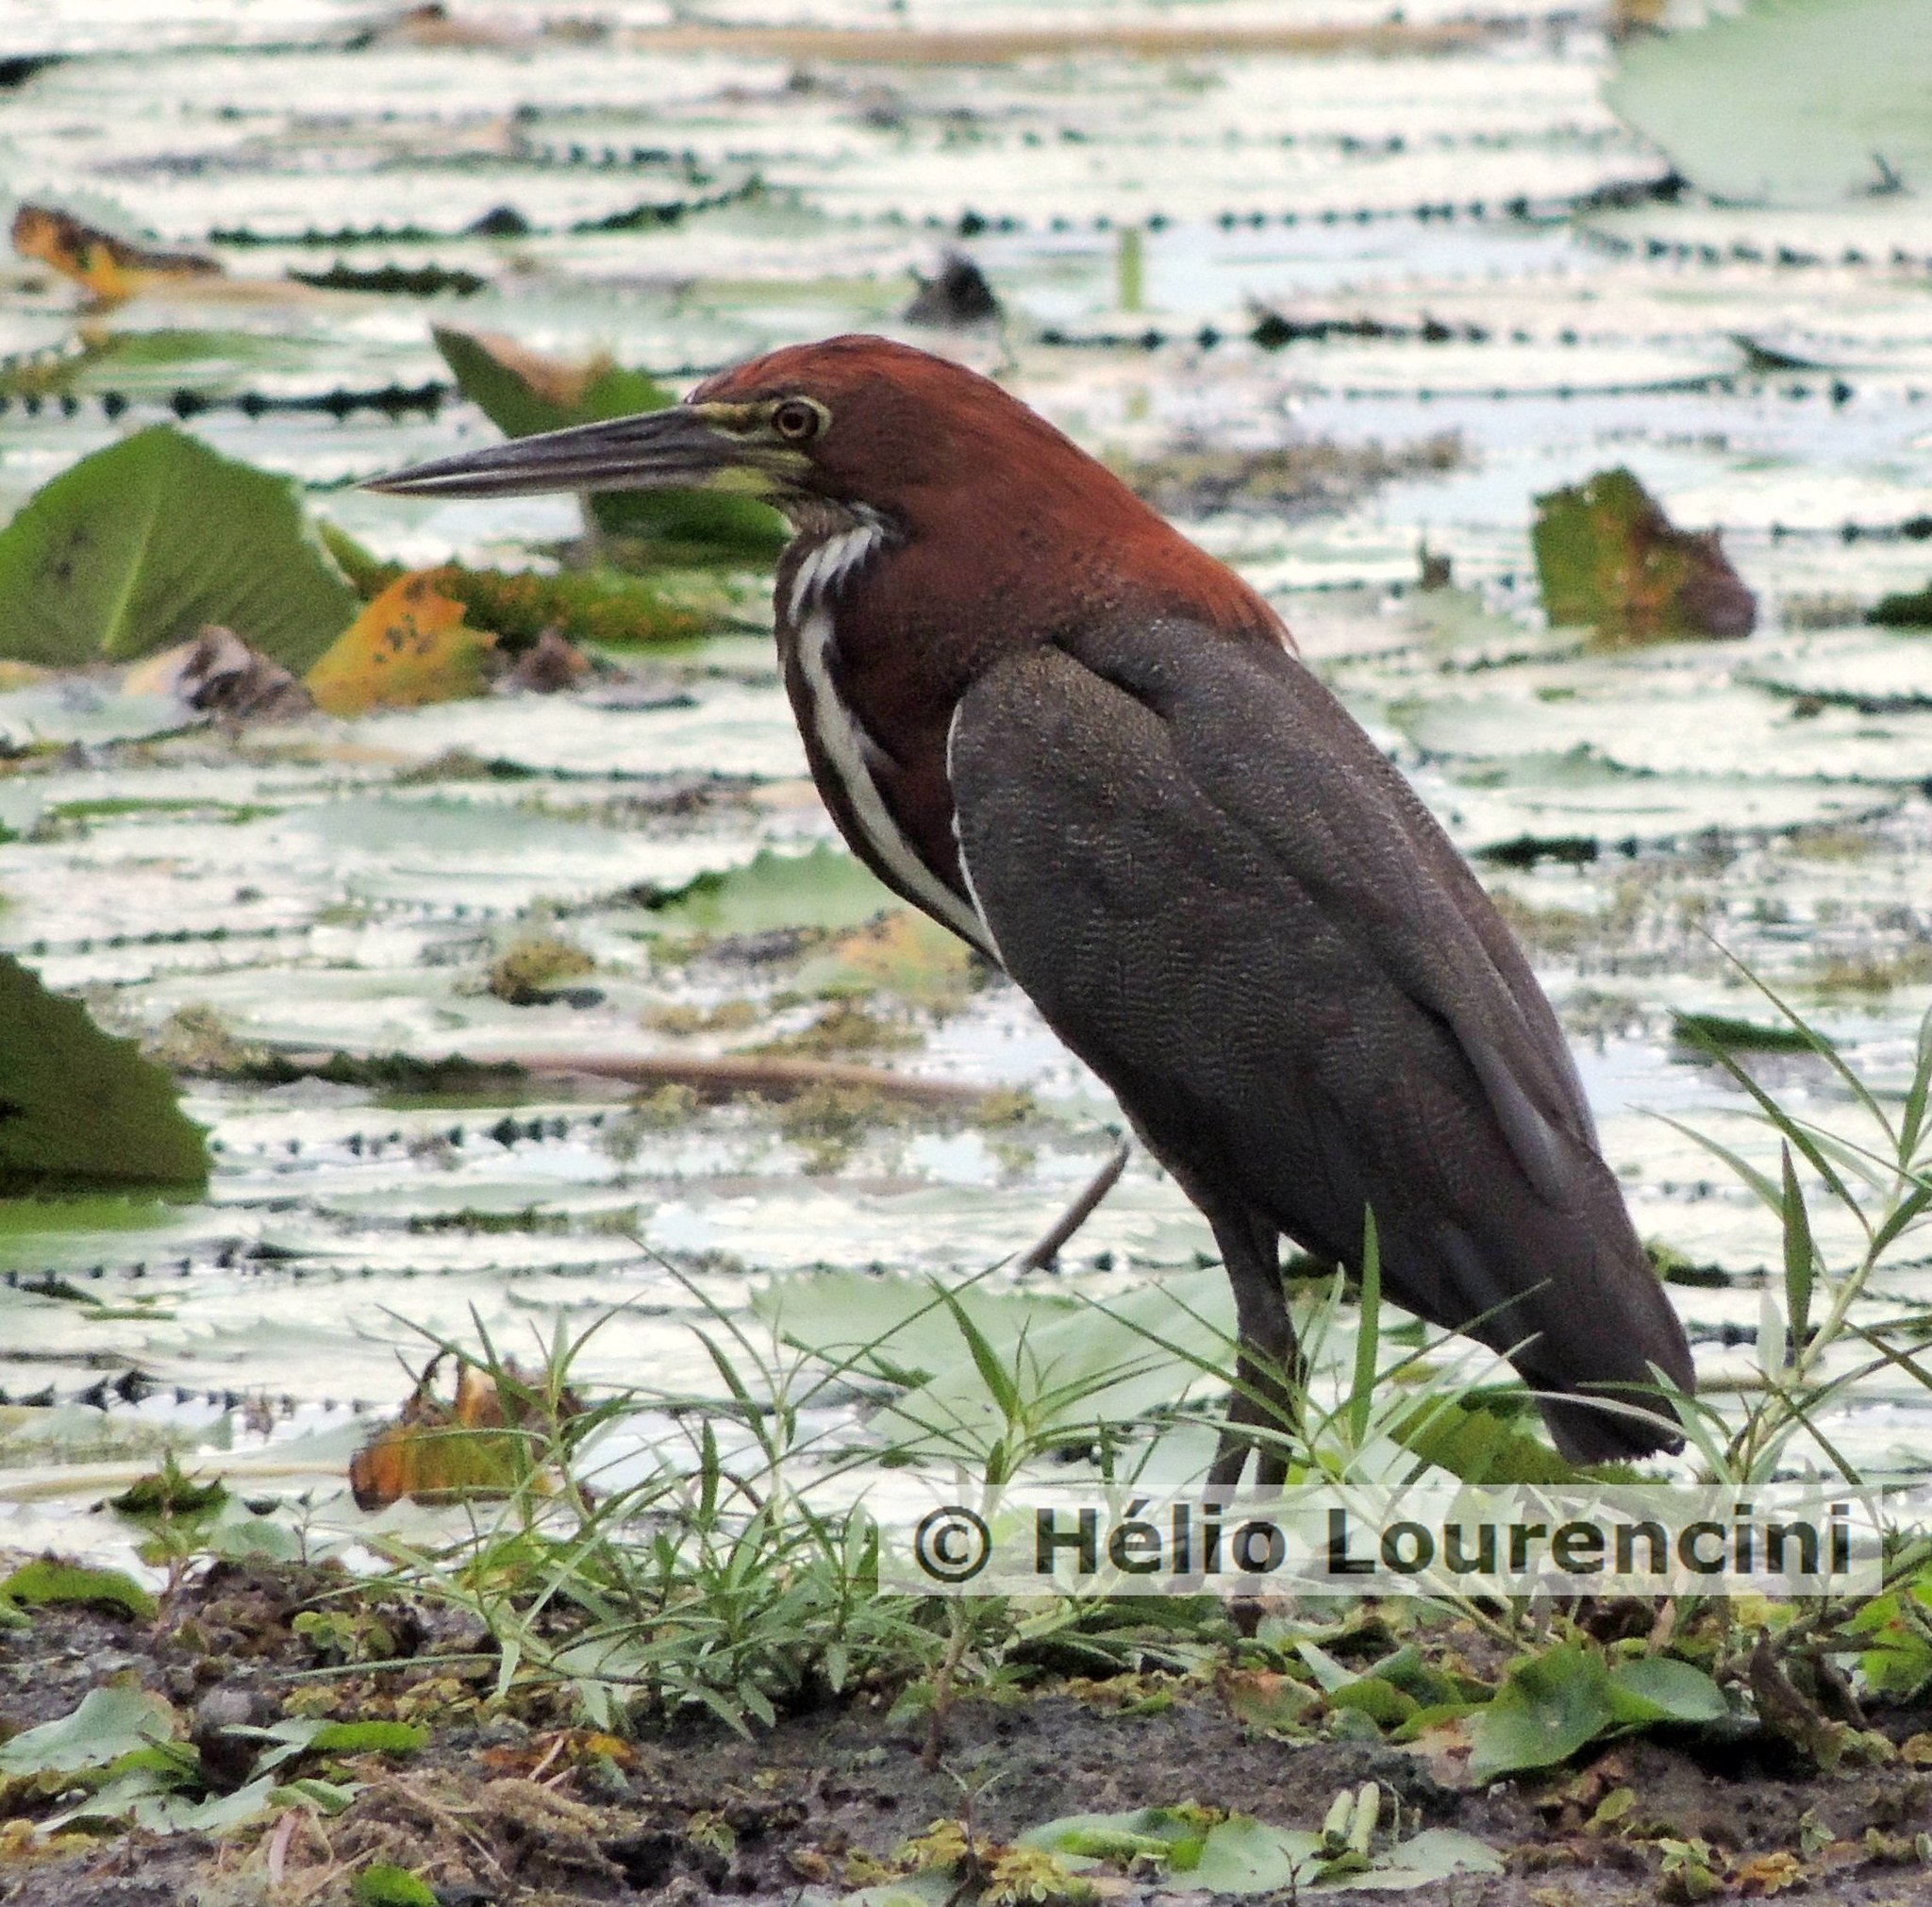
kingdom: Animalia
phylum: Chordata
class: Aves
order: Pelecaniformes
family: Ardeidae
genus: Tigrisoma
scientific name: Tigrisoma lineatum
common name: Rufescent tiger-heron
